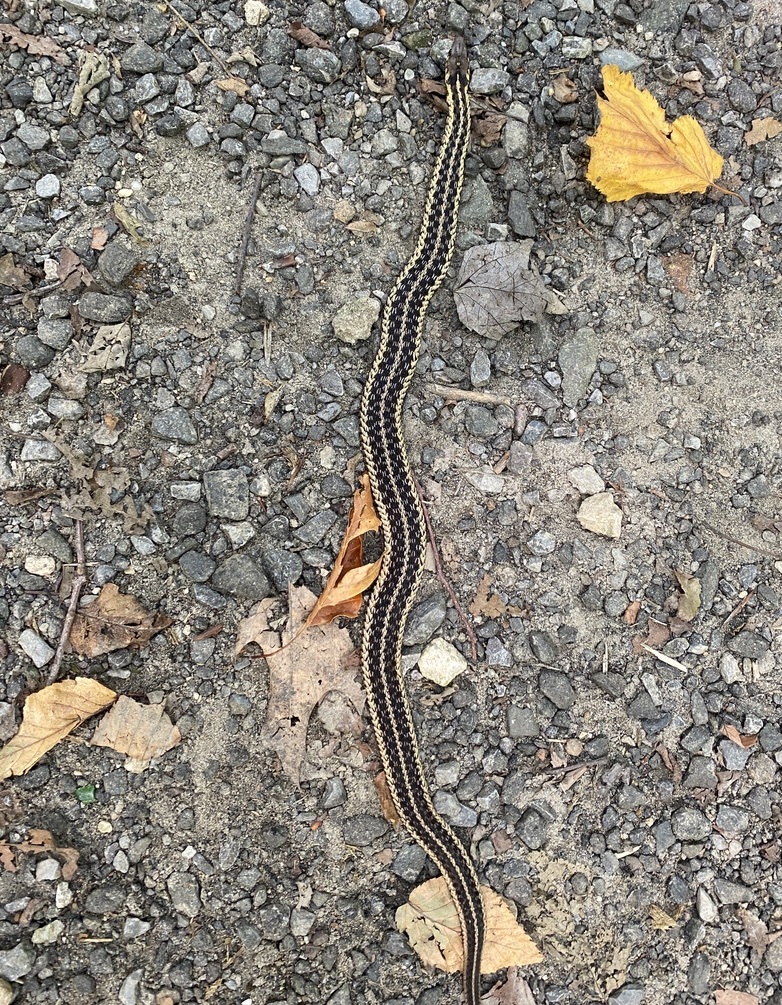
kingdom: Animalia
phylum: Chordata
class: Squamata
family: Colubridae
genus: Thamnophis
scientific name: Thamnophis sirtalis
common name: Common garter snake
